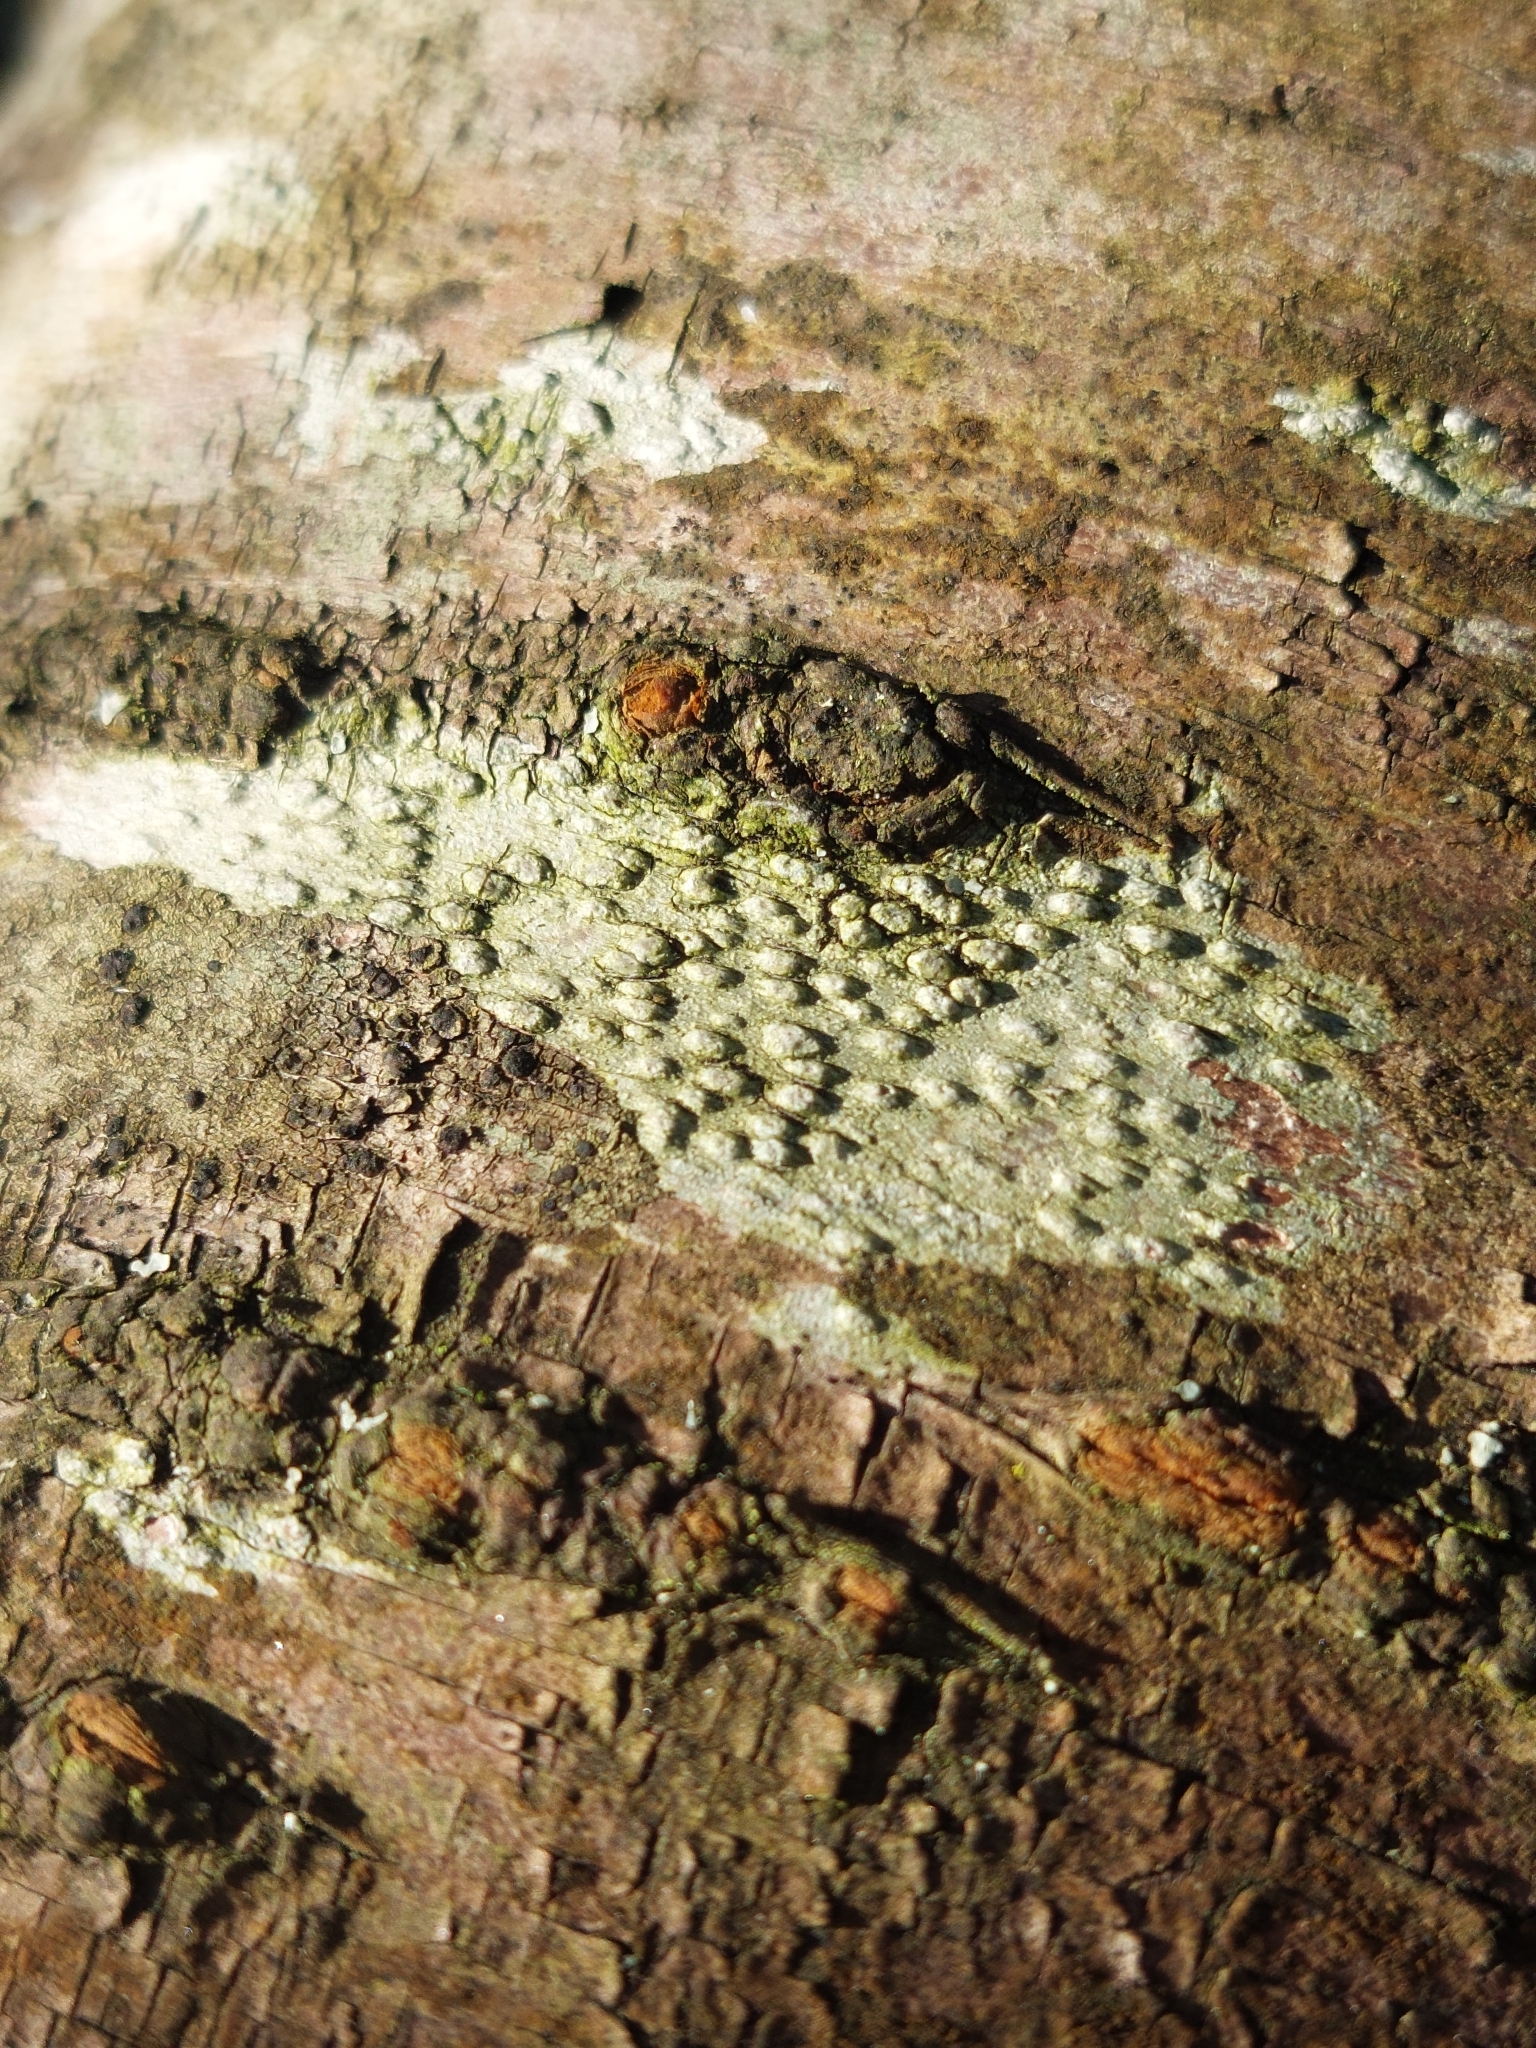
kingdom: Fungi
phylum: Ascomycota
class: Lecanoromycetes
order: Pertusariales
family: Pertusariaceae
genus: Pertusaria
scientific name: Pertusaria leioplaca
